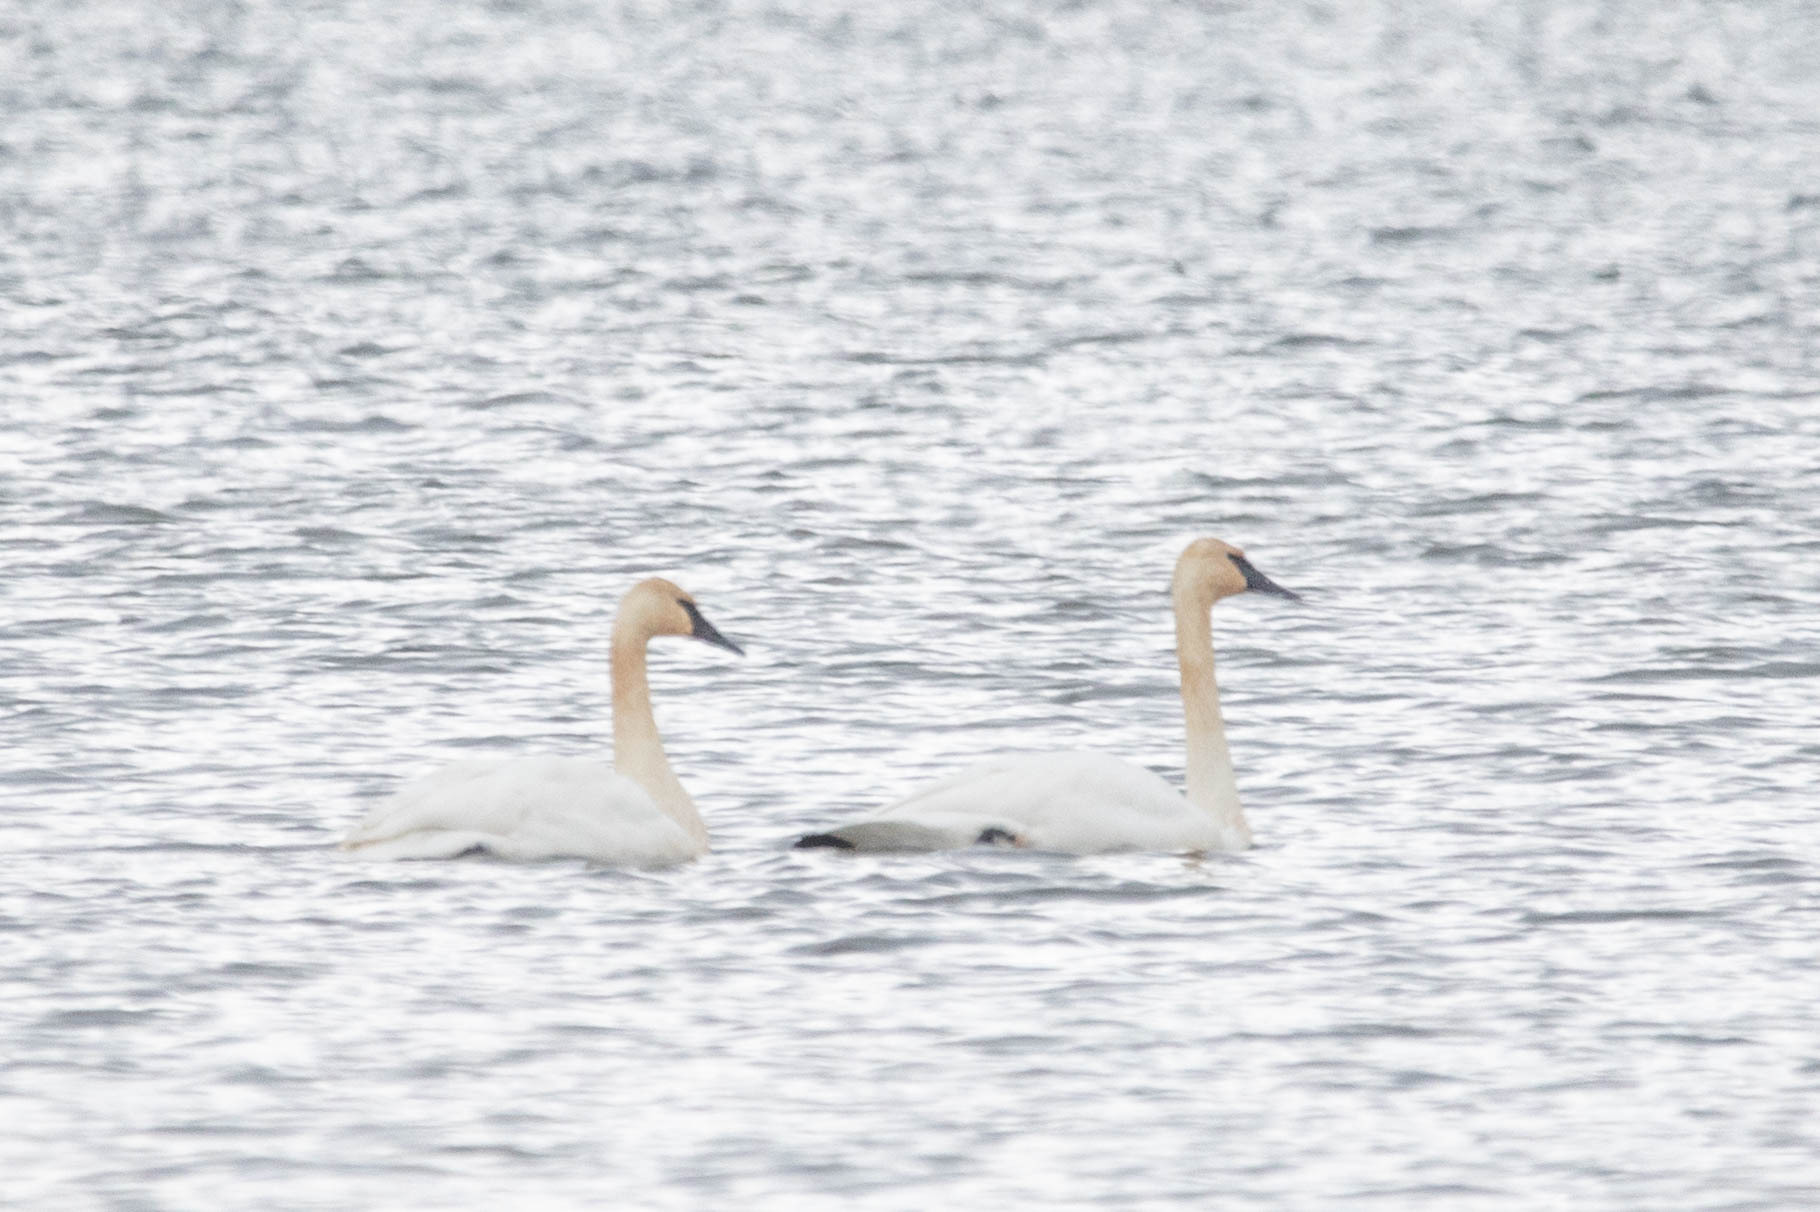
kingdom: Animalia
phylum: Chordata
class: Aves
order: Anseriformes
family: Anatidae
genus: Cygnus
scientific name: Cygnus buccinator
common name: Trumpeter swan
